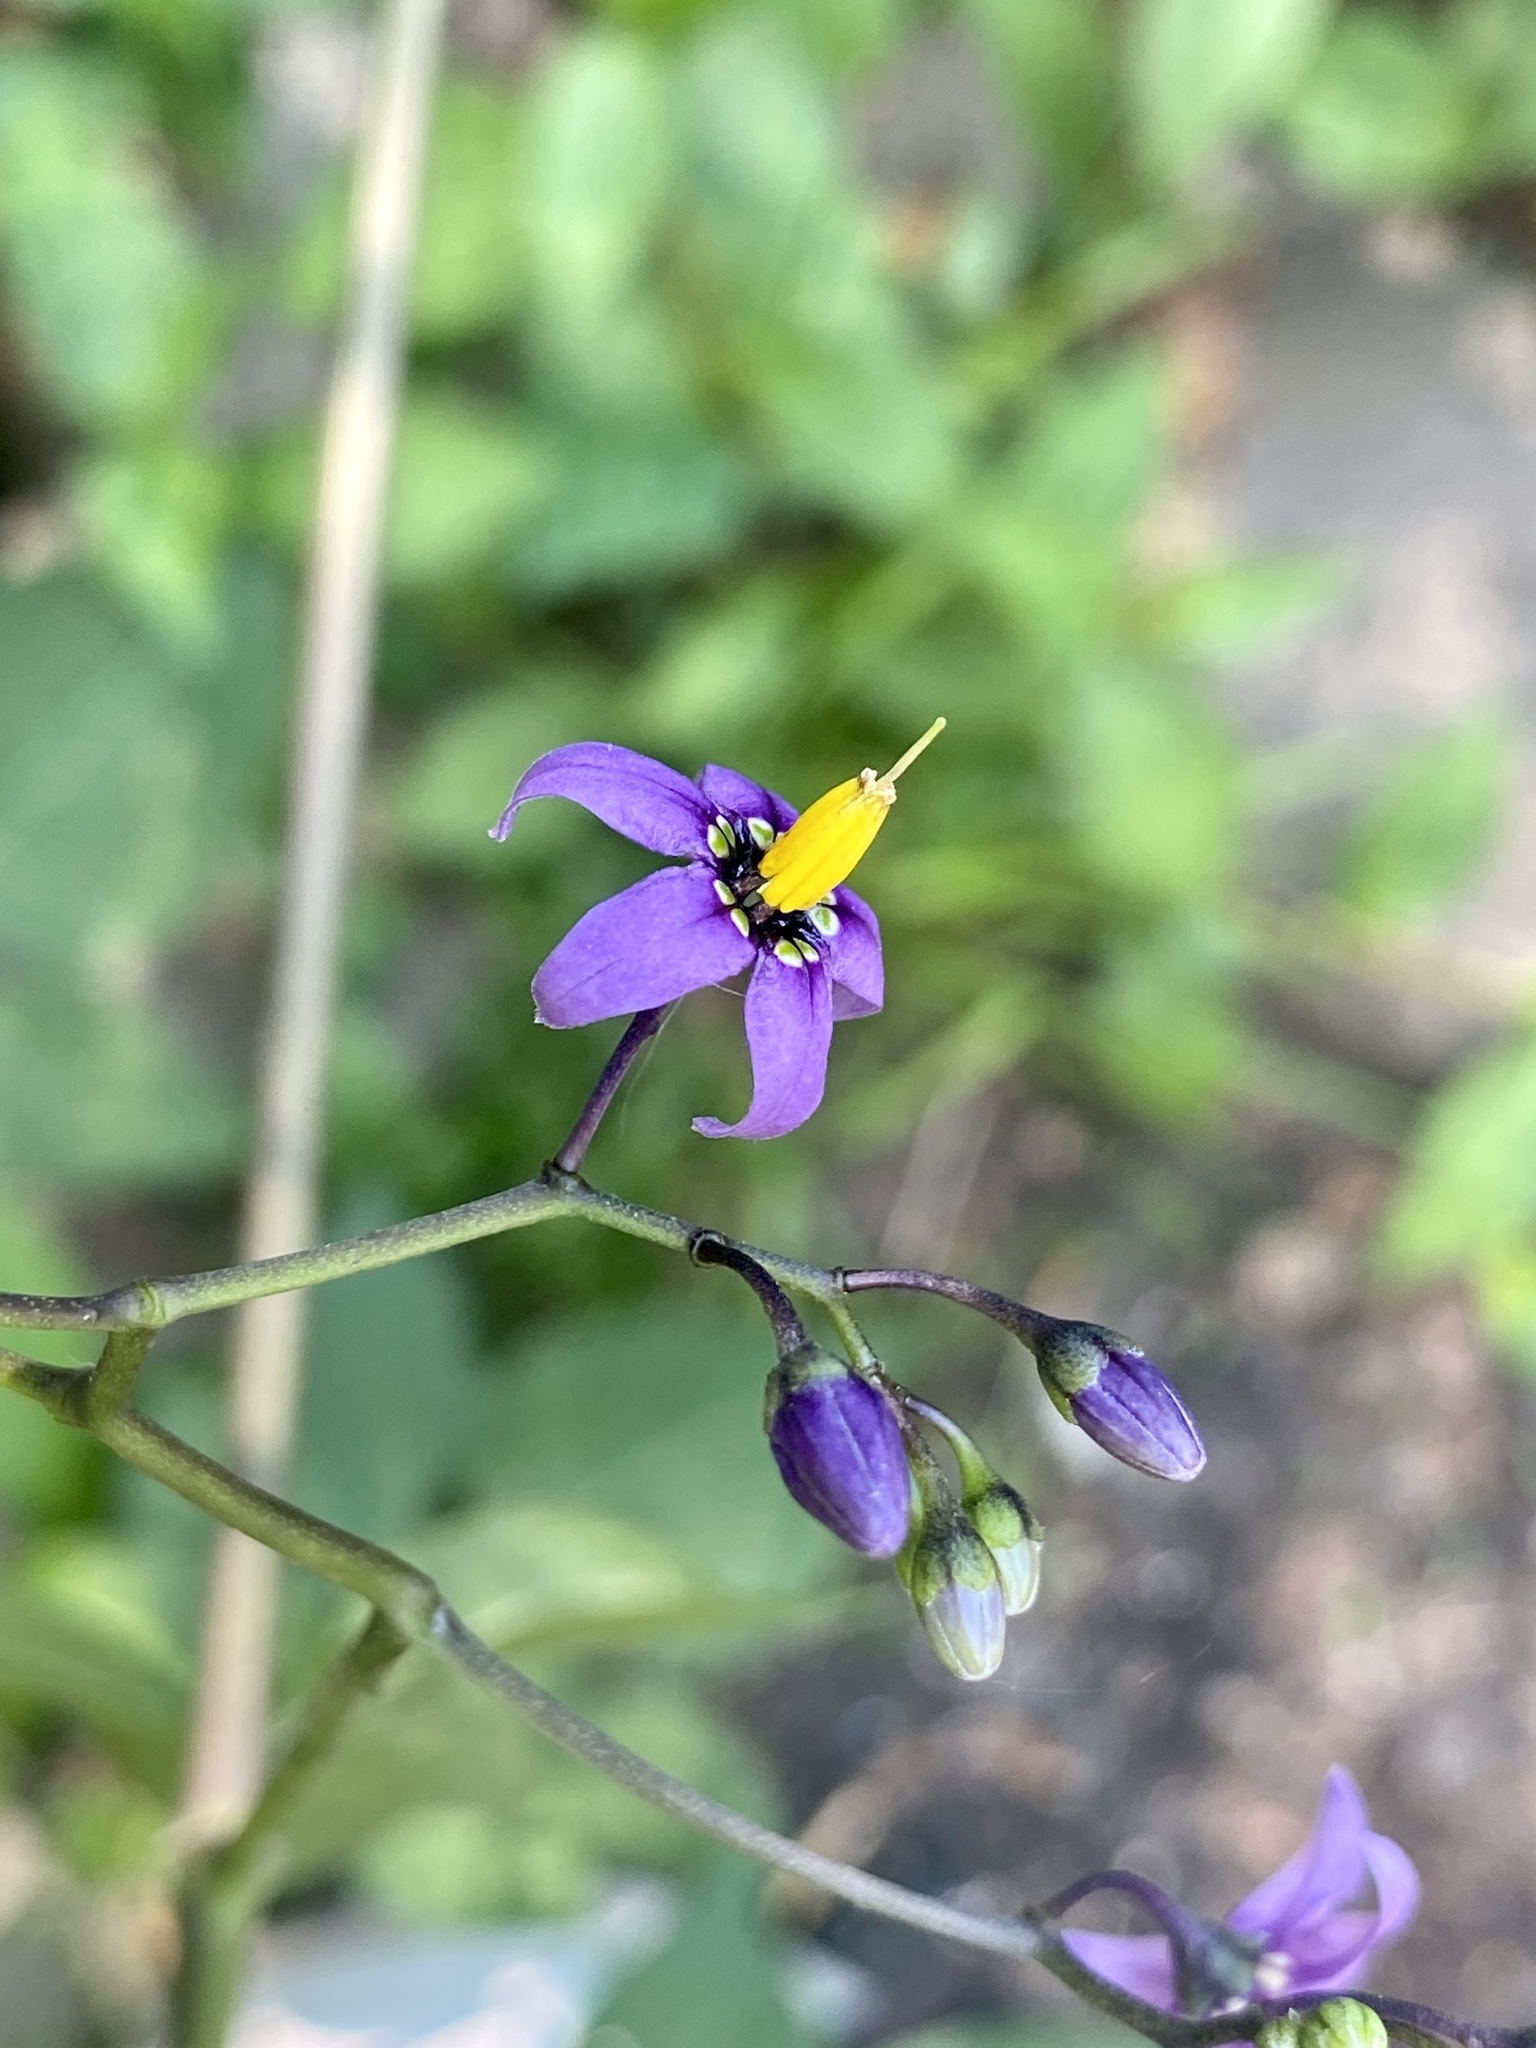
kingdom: Plantae
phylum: Tracheophyta
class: Magnoliopsida
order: Solanales
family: Solanaceae
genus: Solanum
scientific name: Solanum dulcamara
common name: Climbing nightshade
